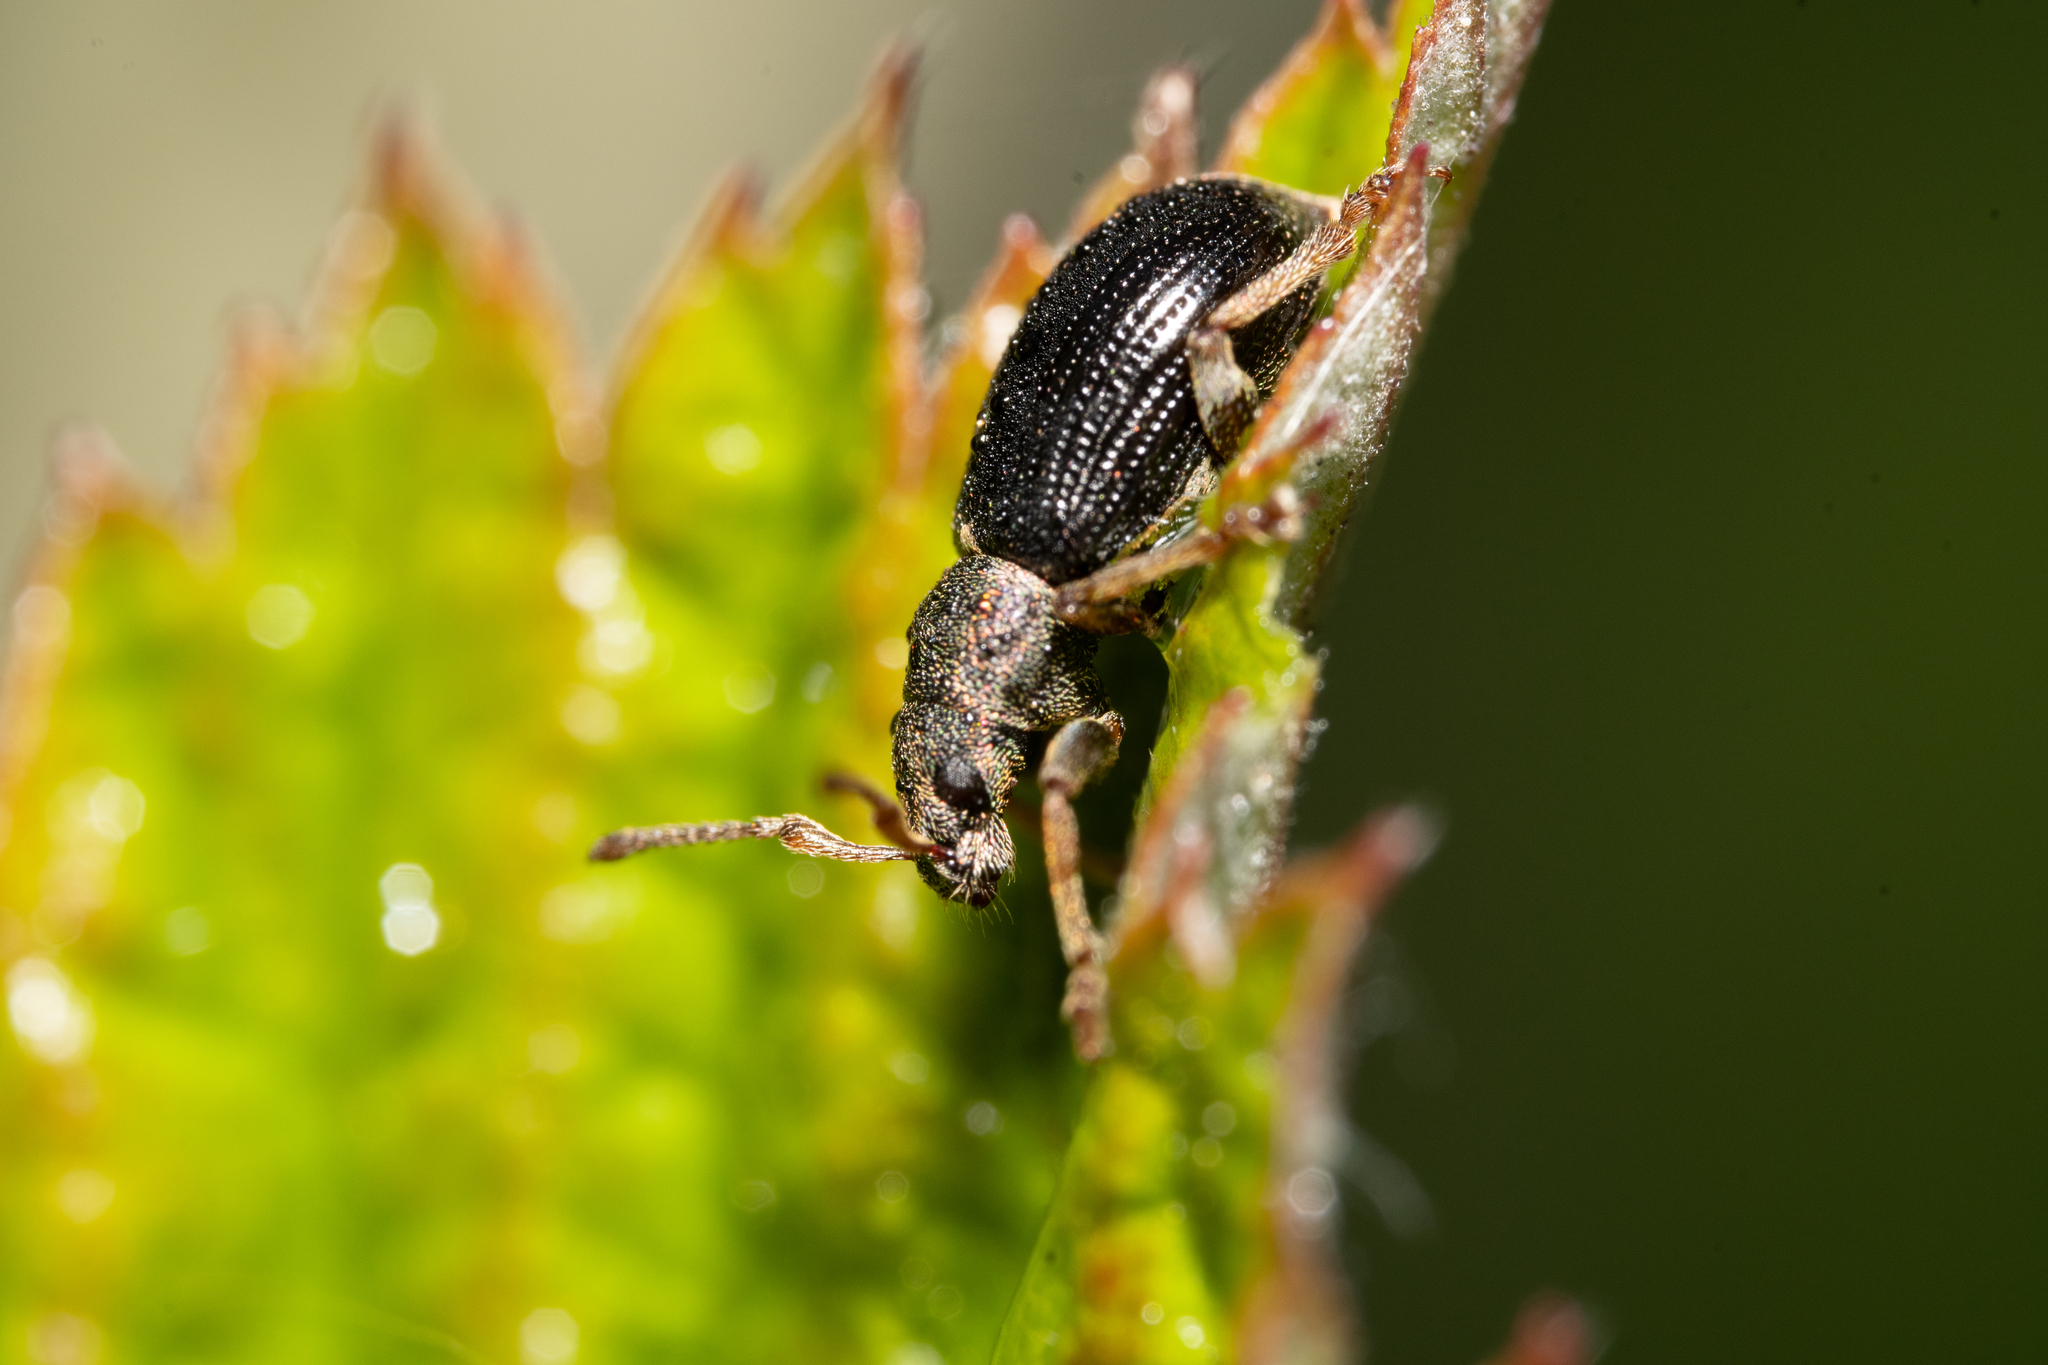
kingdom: Animalia
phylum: Arthropoda
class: Insecta
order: Coleoptera
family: Curculionidae
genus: Phyllobius
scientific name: Phyllobius viridicollis
